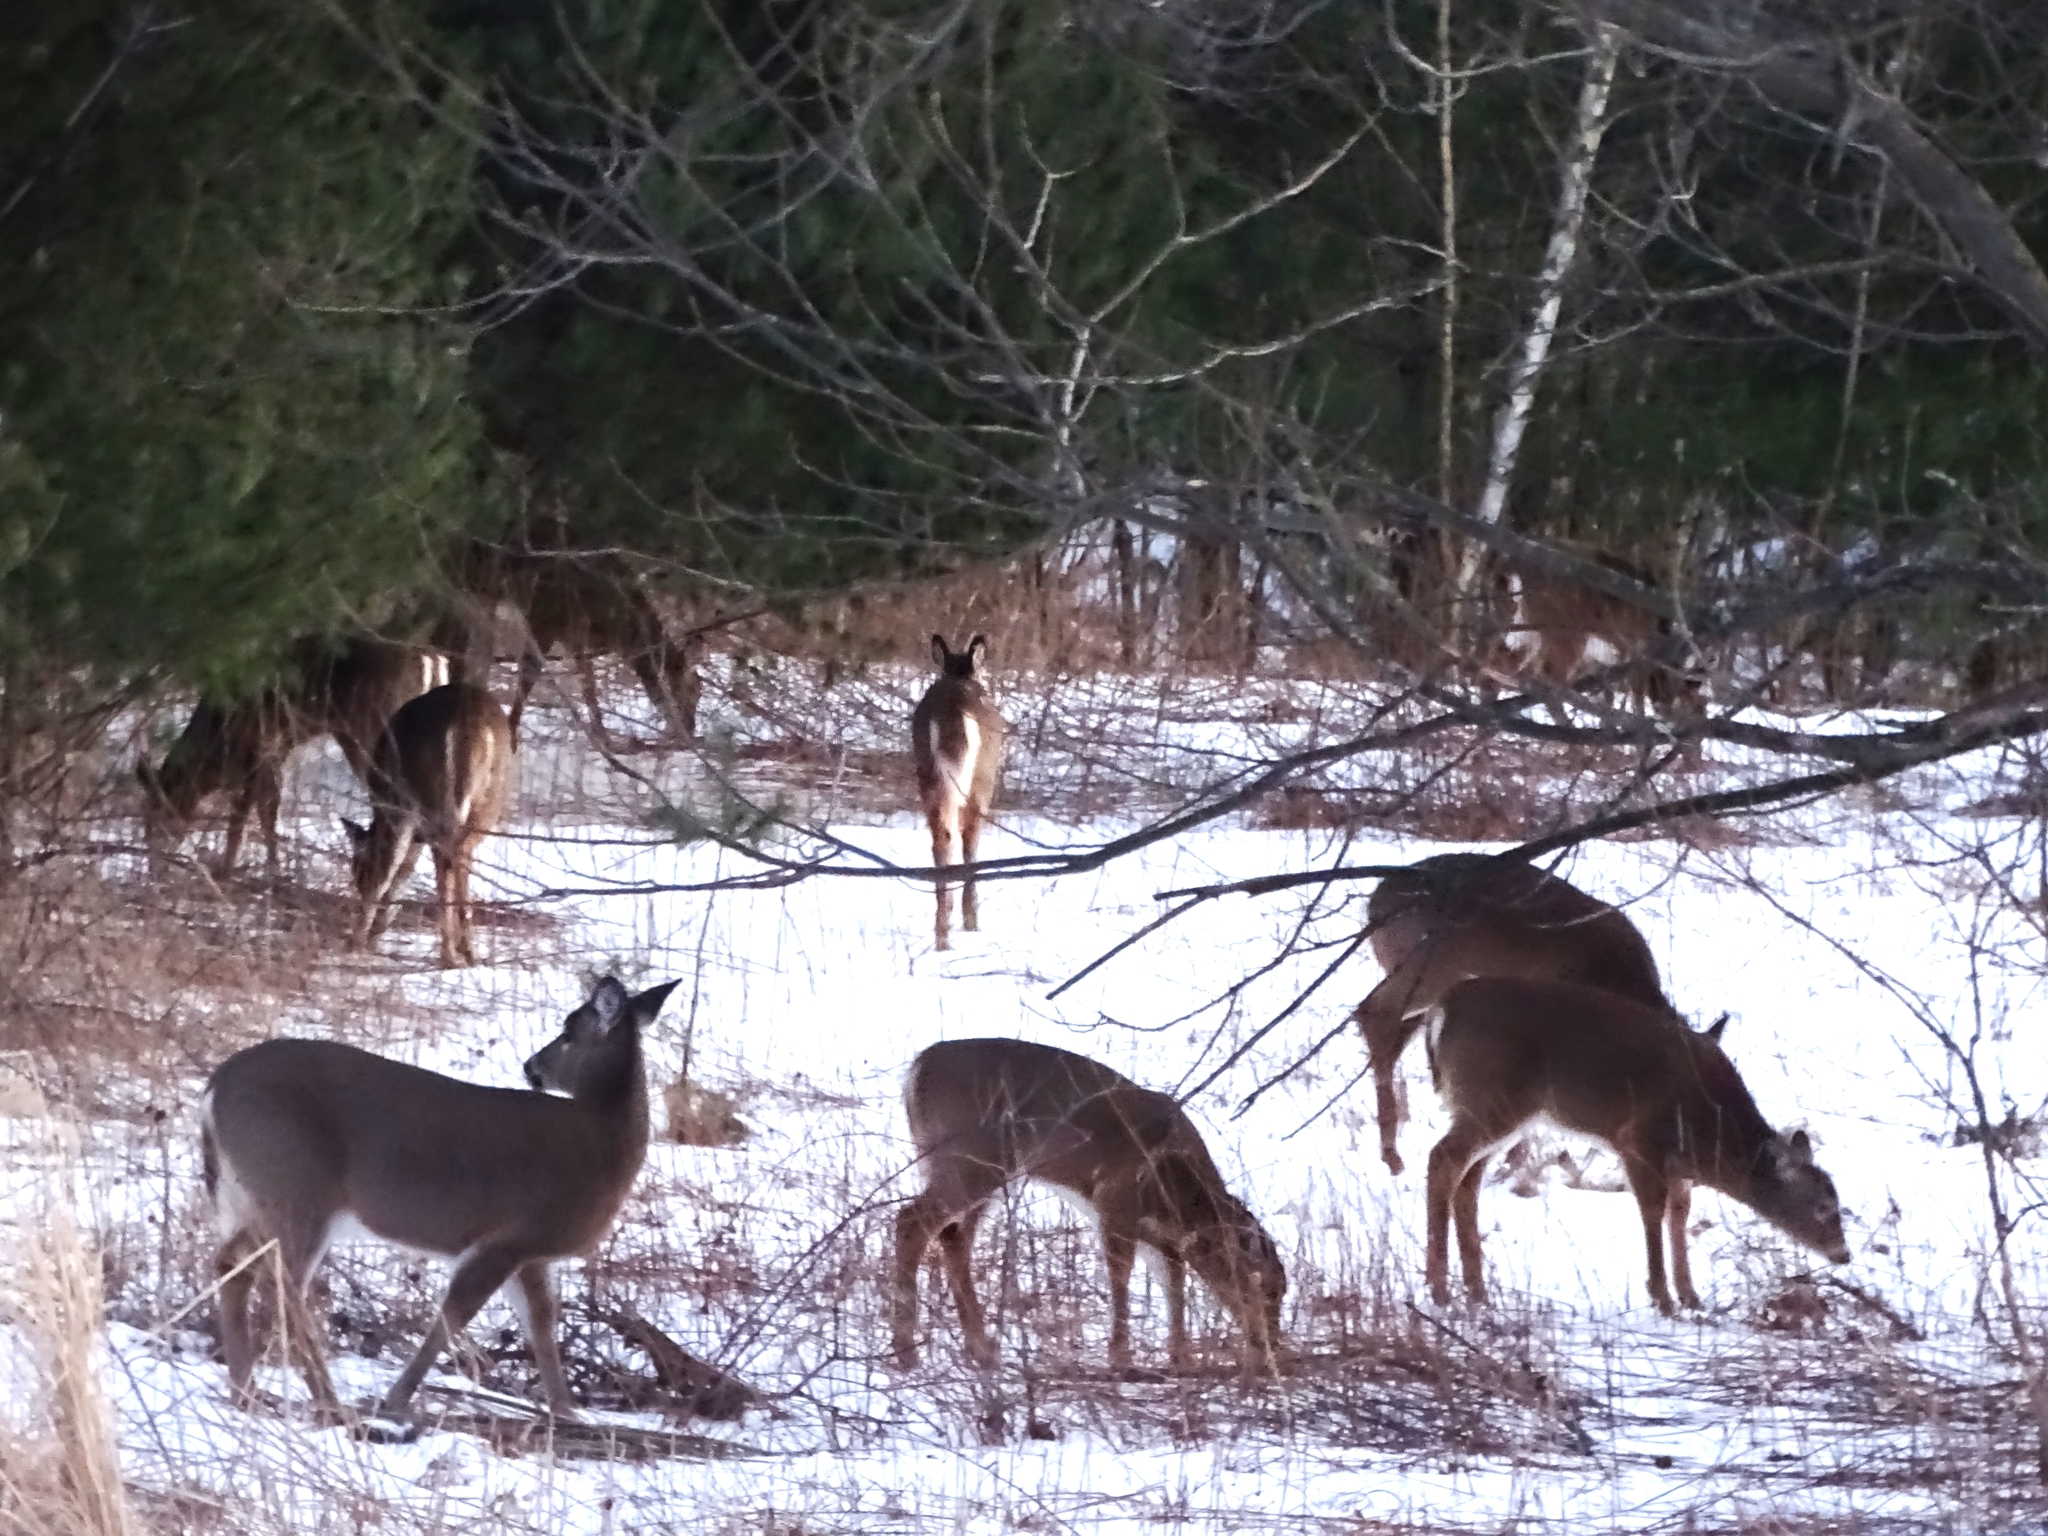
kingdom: Animalia
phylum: Chordata
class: Mammalia
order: Artiodactyla
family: Cervidae
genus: Odocoileus
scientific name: Odocoileus virginianus
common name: White-tailed deer
